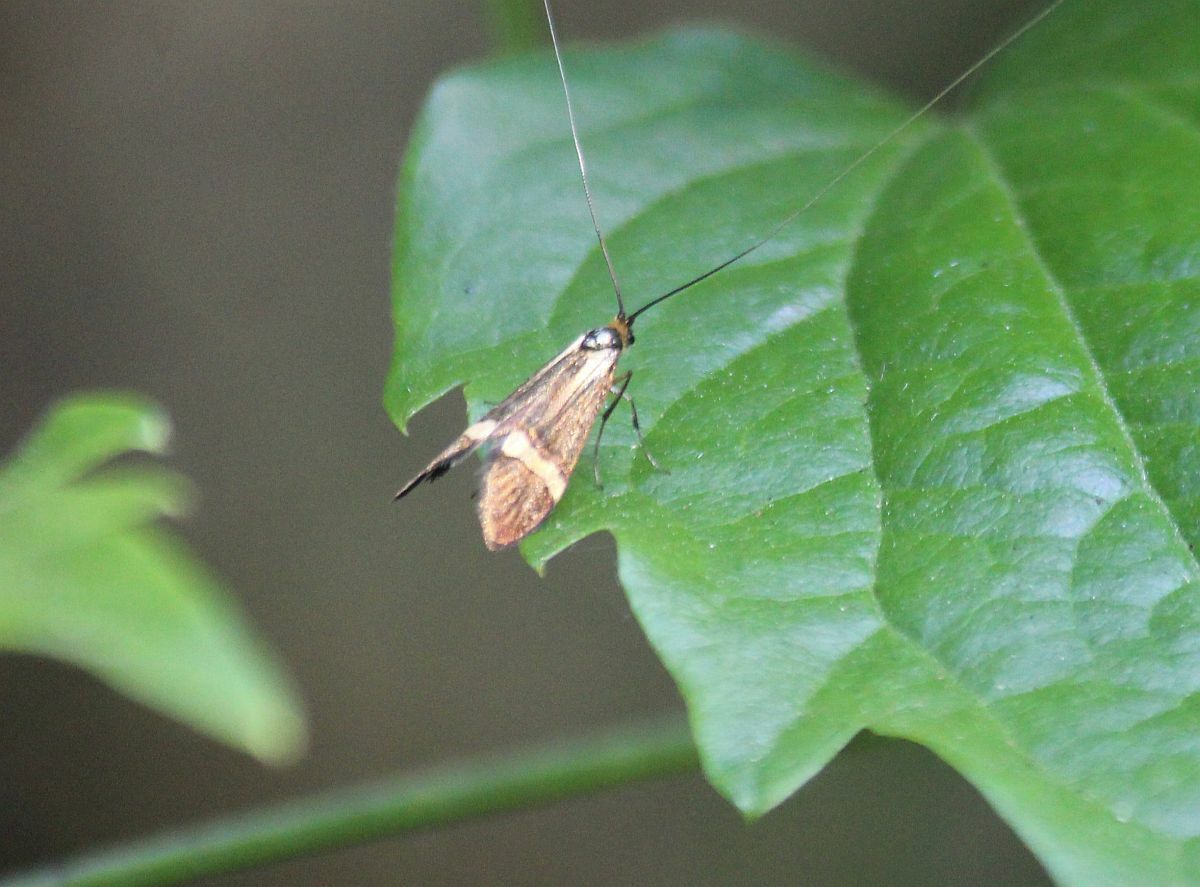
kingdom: Animalia
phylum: Arthropoda
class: Insecta
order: Lepidoptera
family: Adelidae
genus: Nemophora
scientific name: Nemophora degeerella
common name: Yellow-barred long-horn
